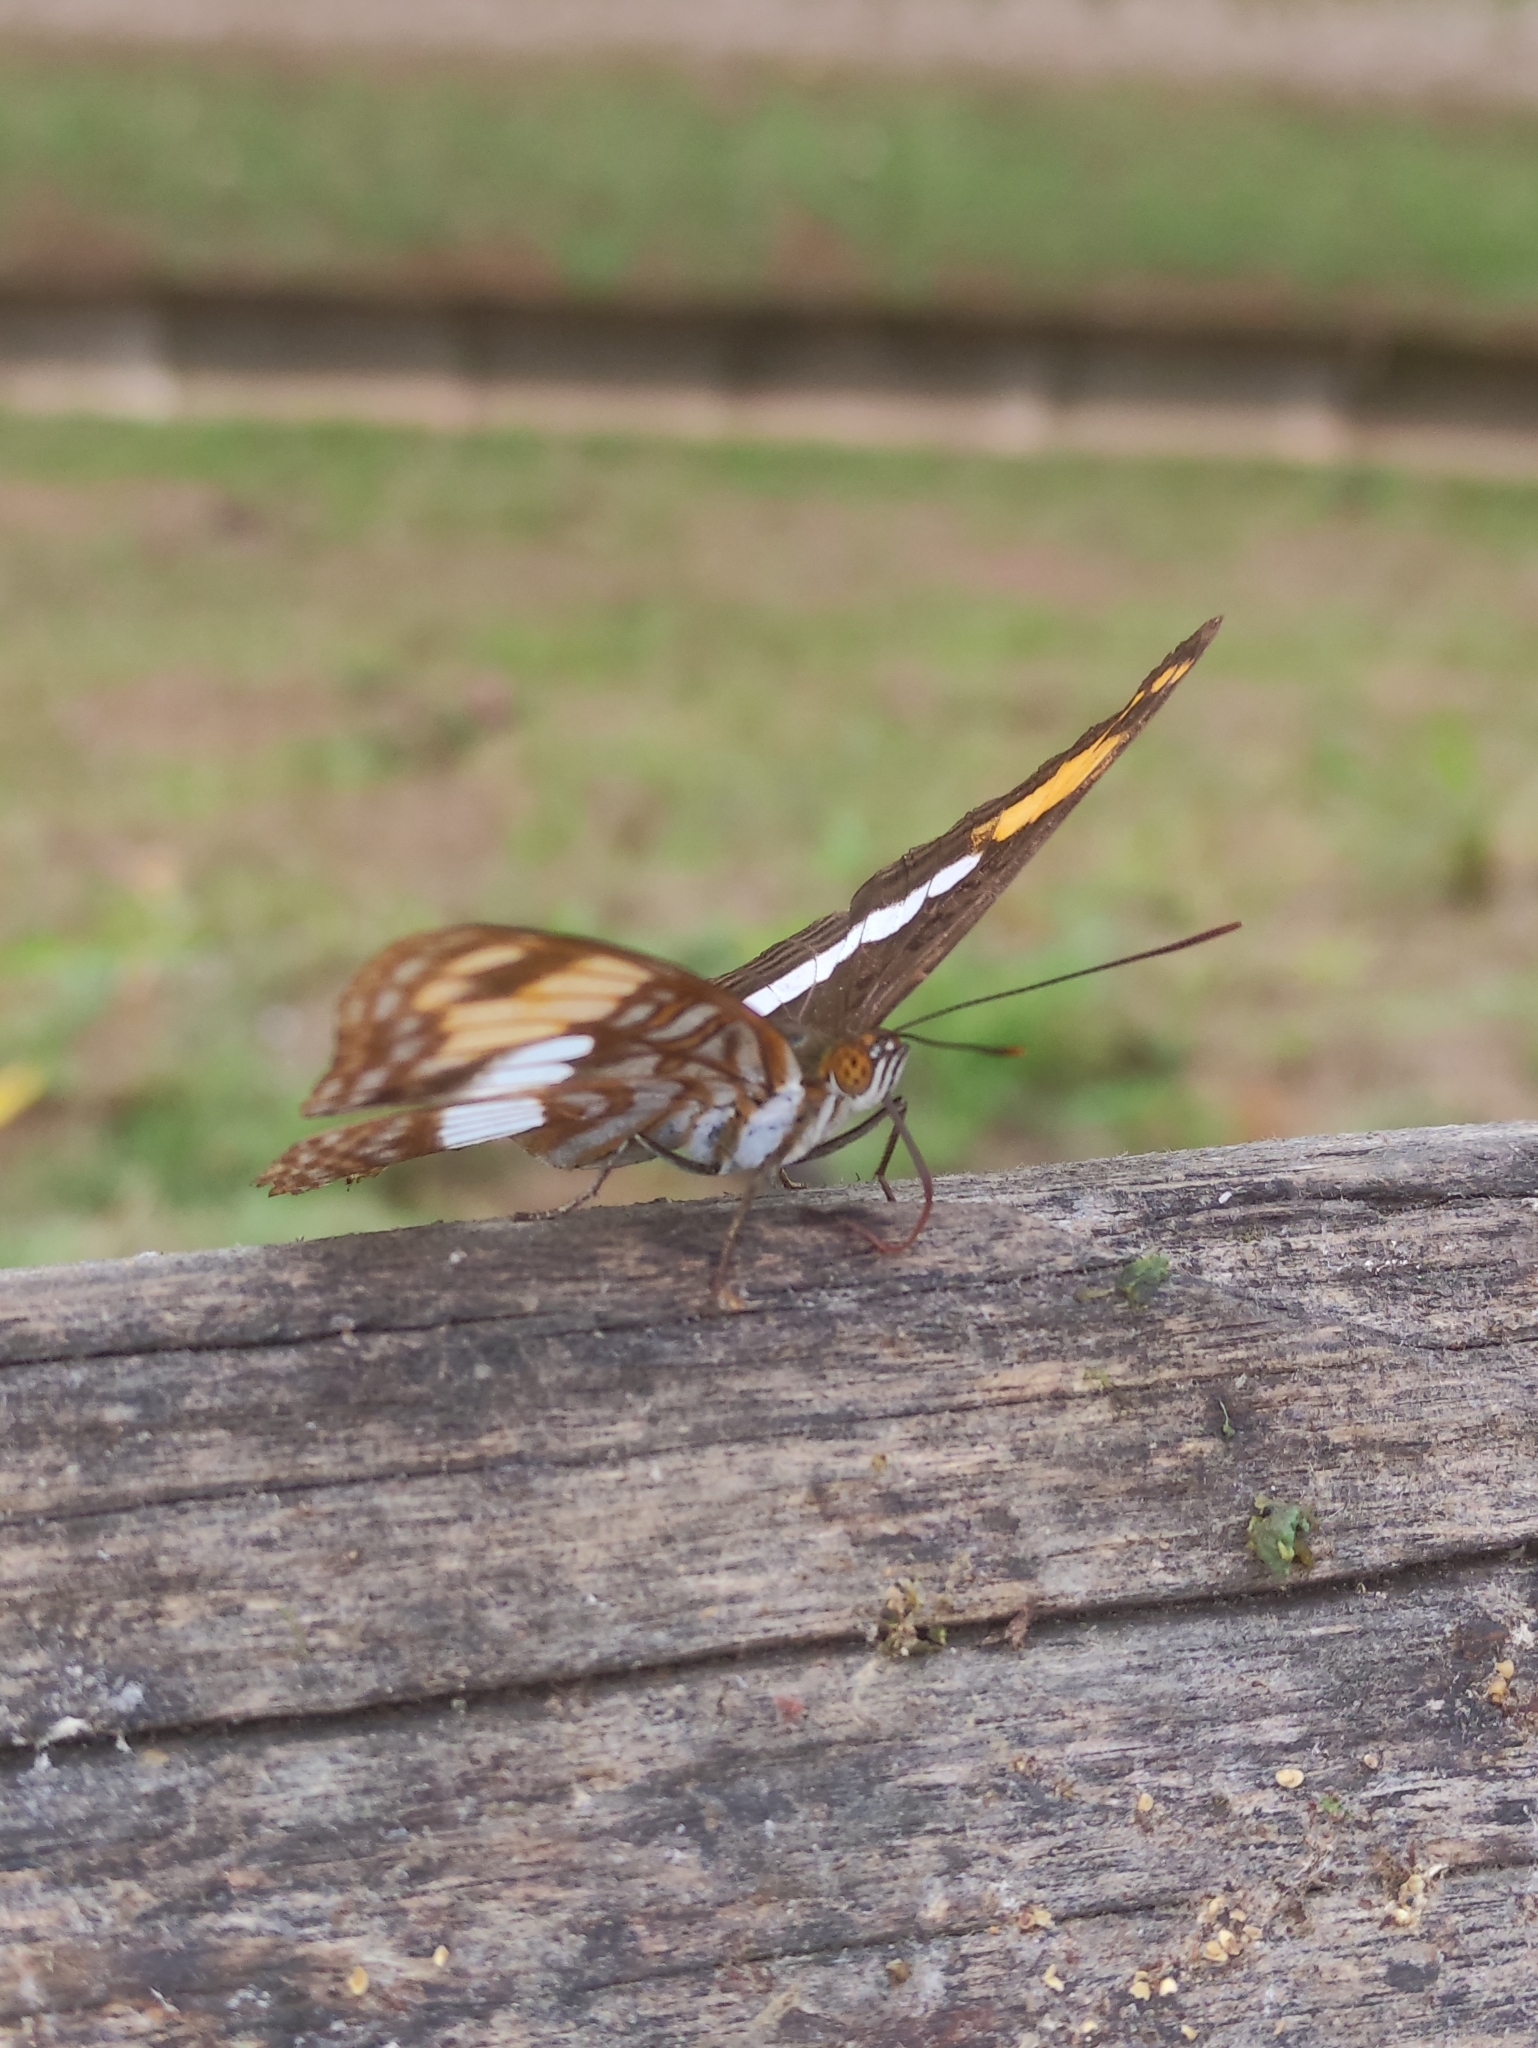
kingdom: Animalia
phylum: Arthropoda
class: Insecta
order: Lepidoptera
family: Nymphalidae
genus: Limenitis
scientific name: Limenitis Adelpha erotia
